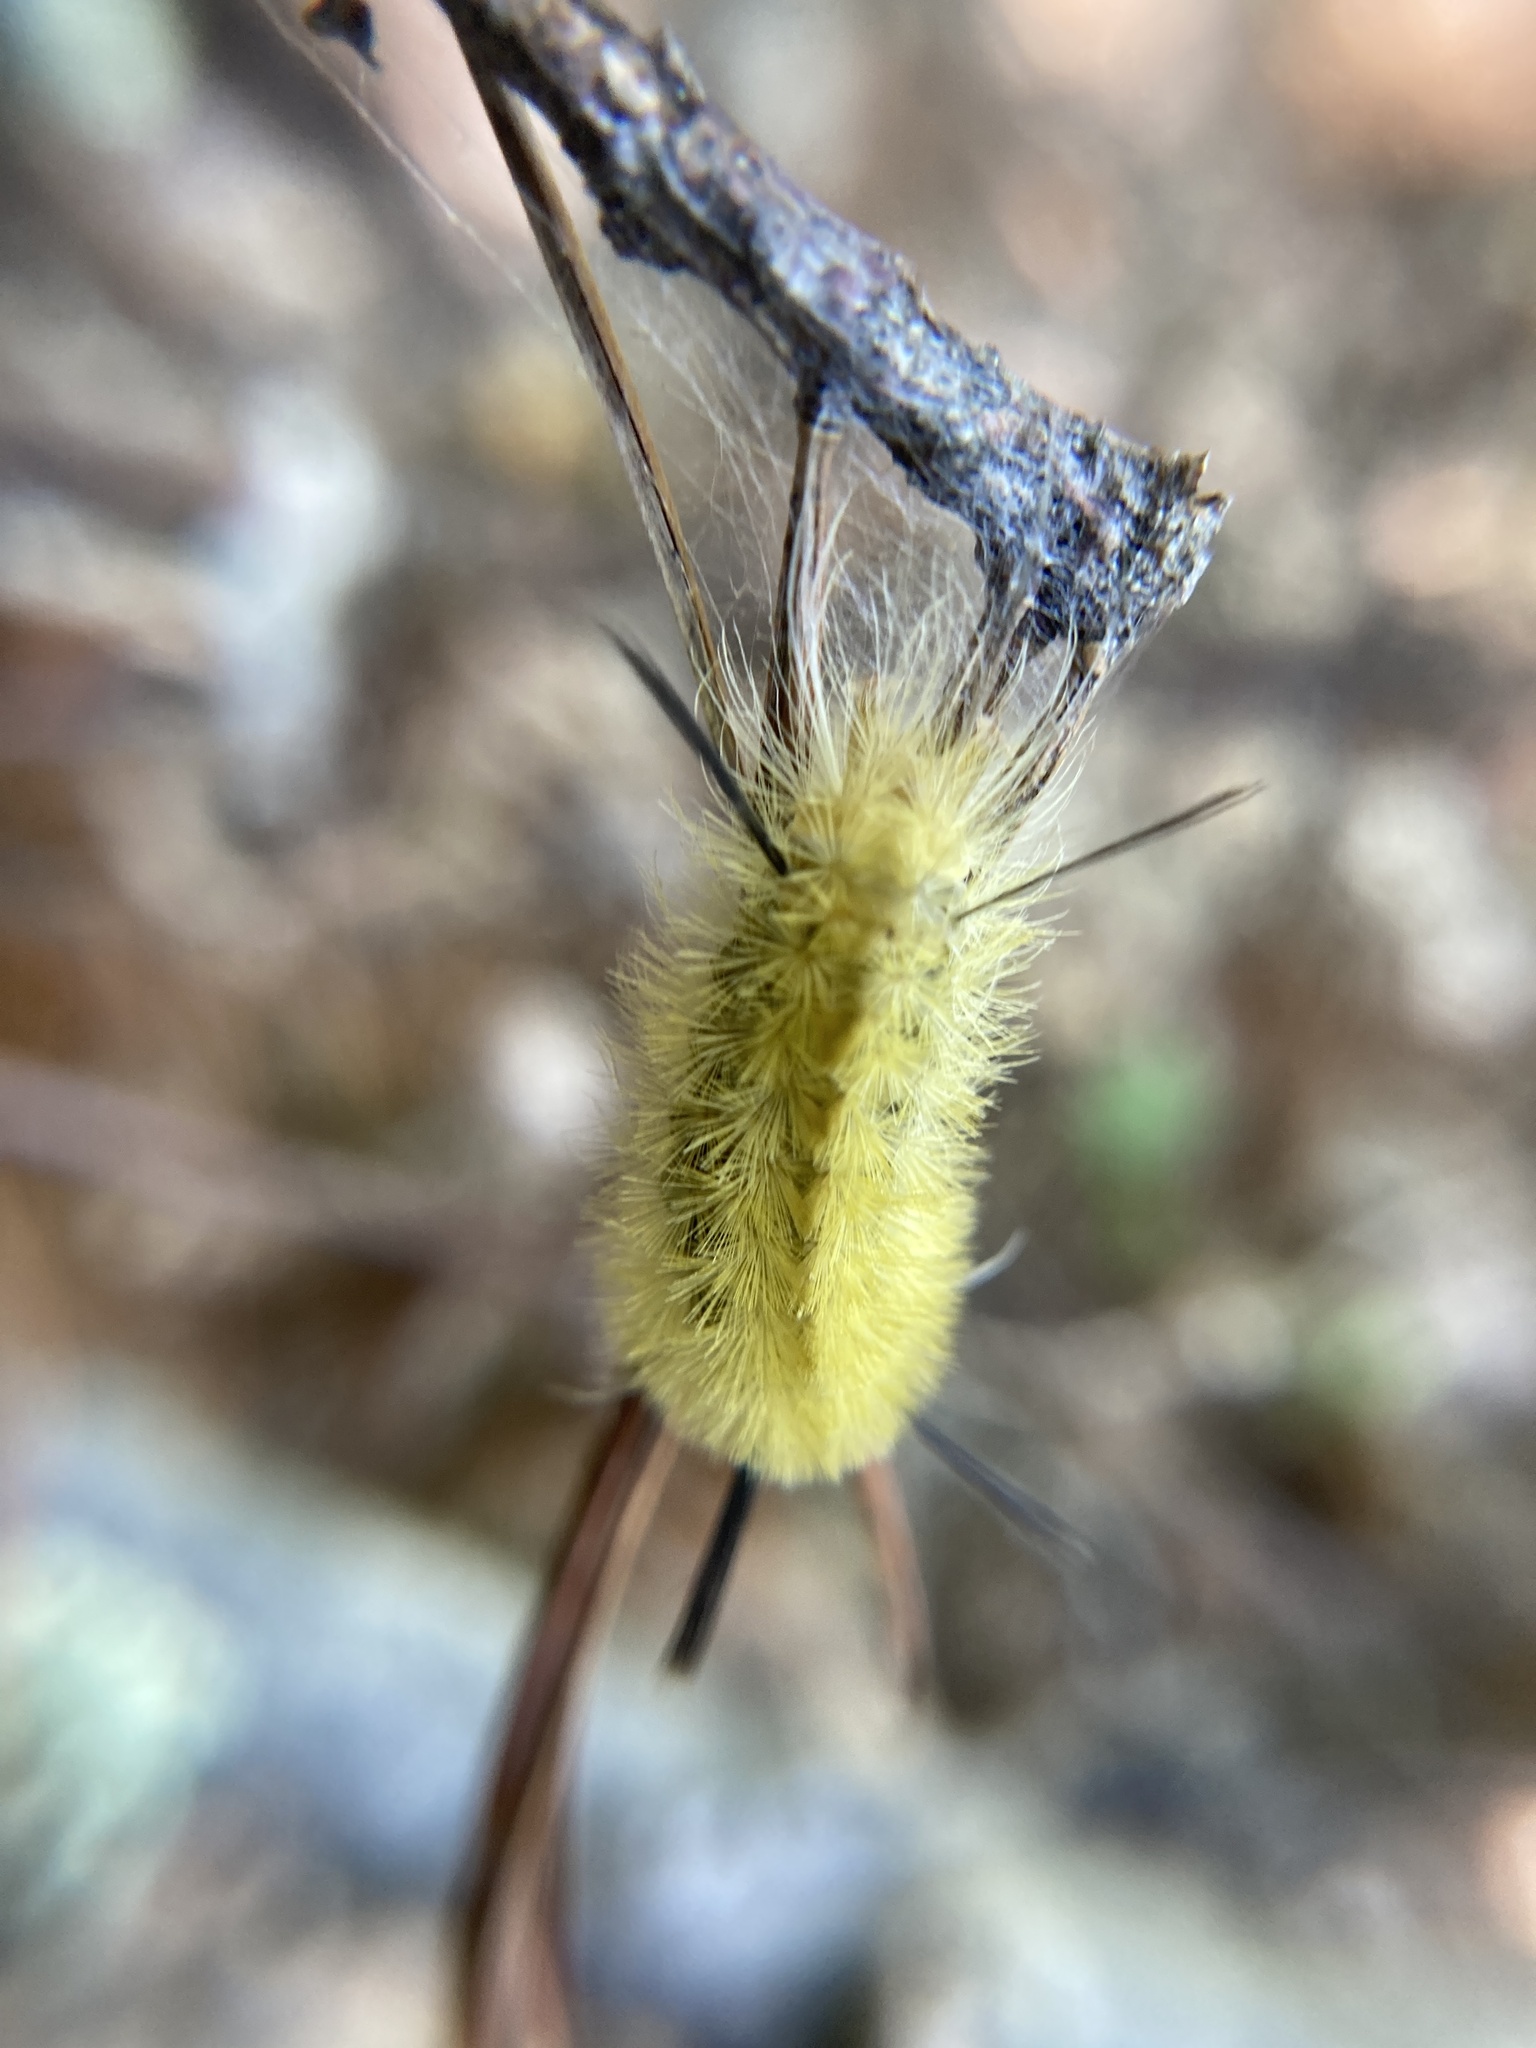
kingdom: Animalia
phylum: Arthropoda
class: Insecta
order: Lepidoptera
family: Erebidae
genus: Halysidota
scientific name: Halysidota tessellaris
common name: Banded tussock moth
